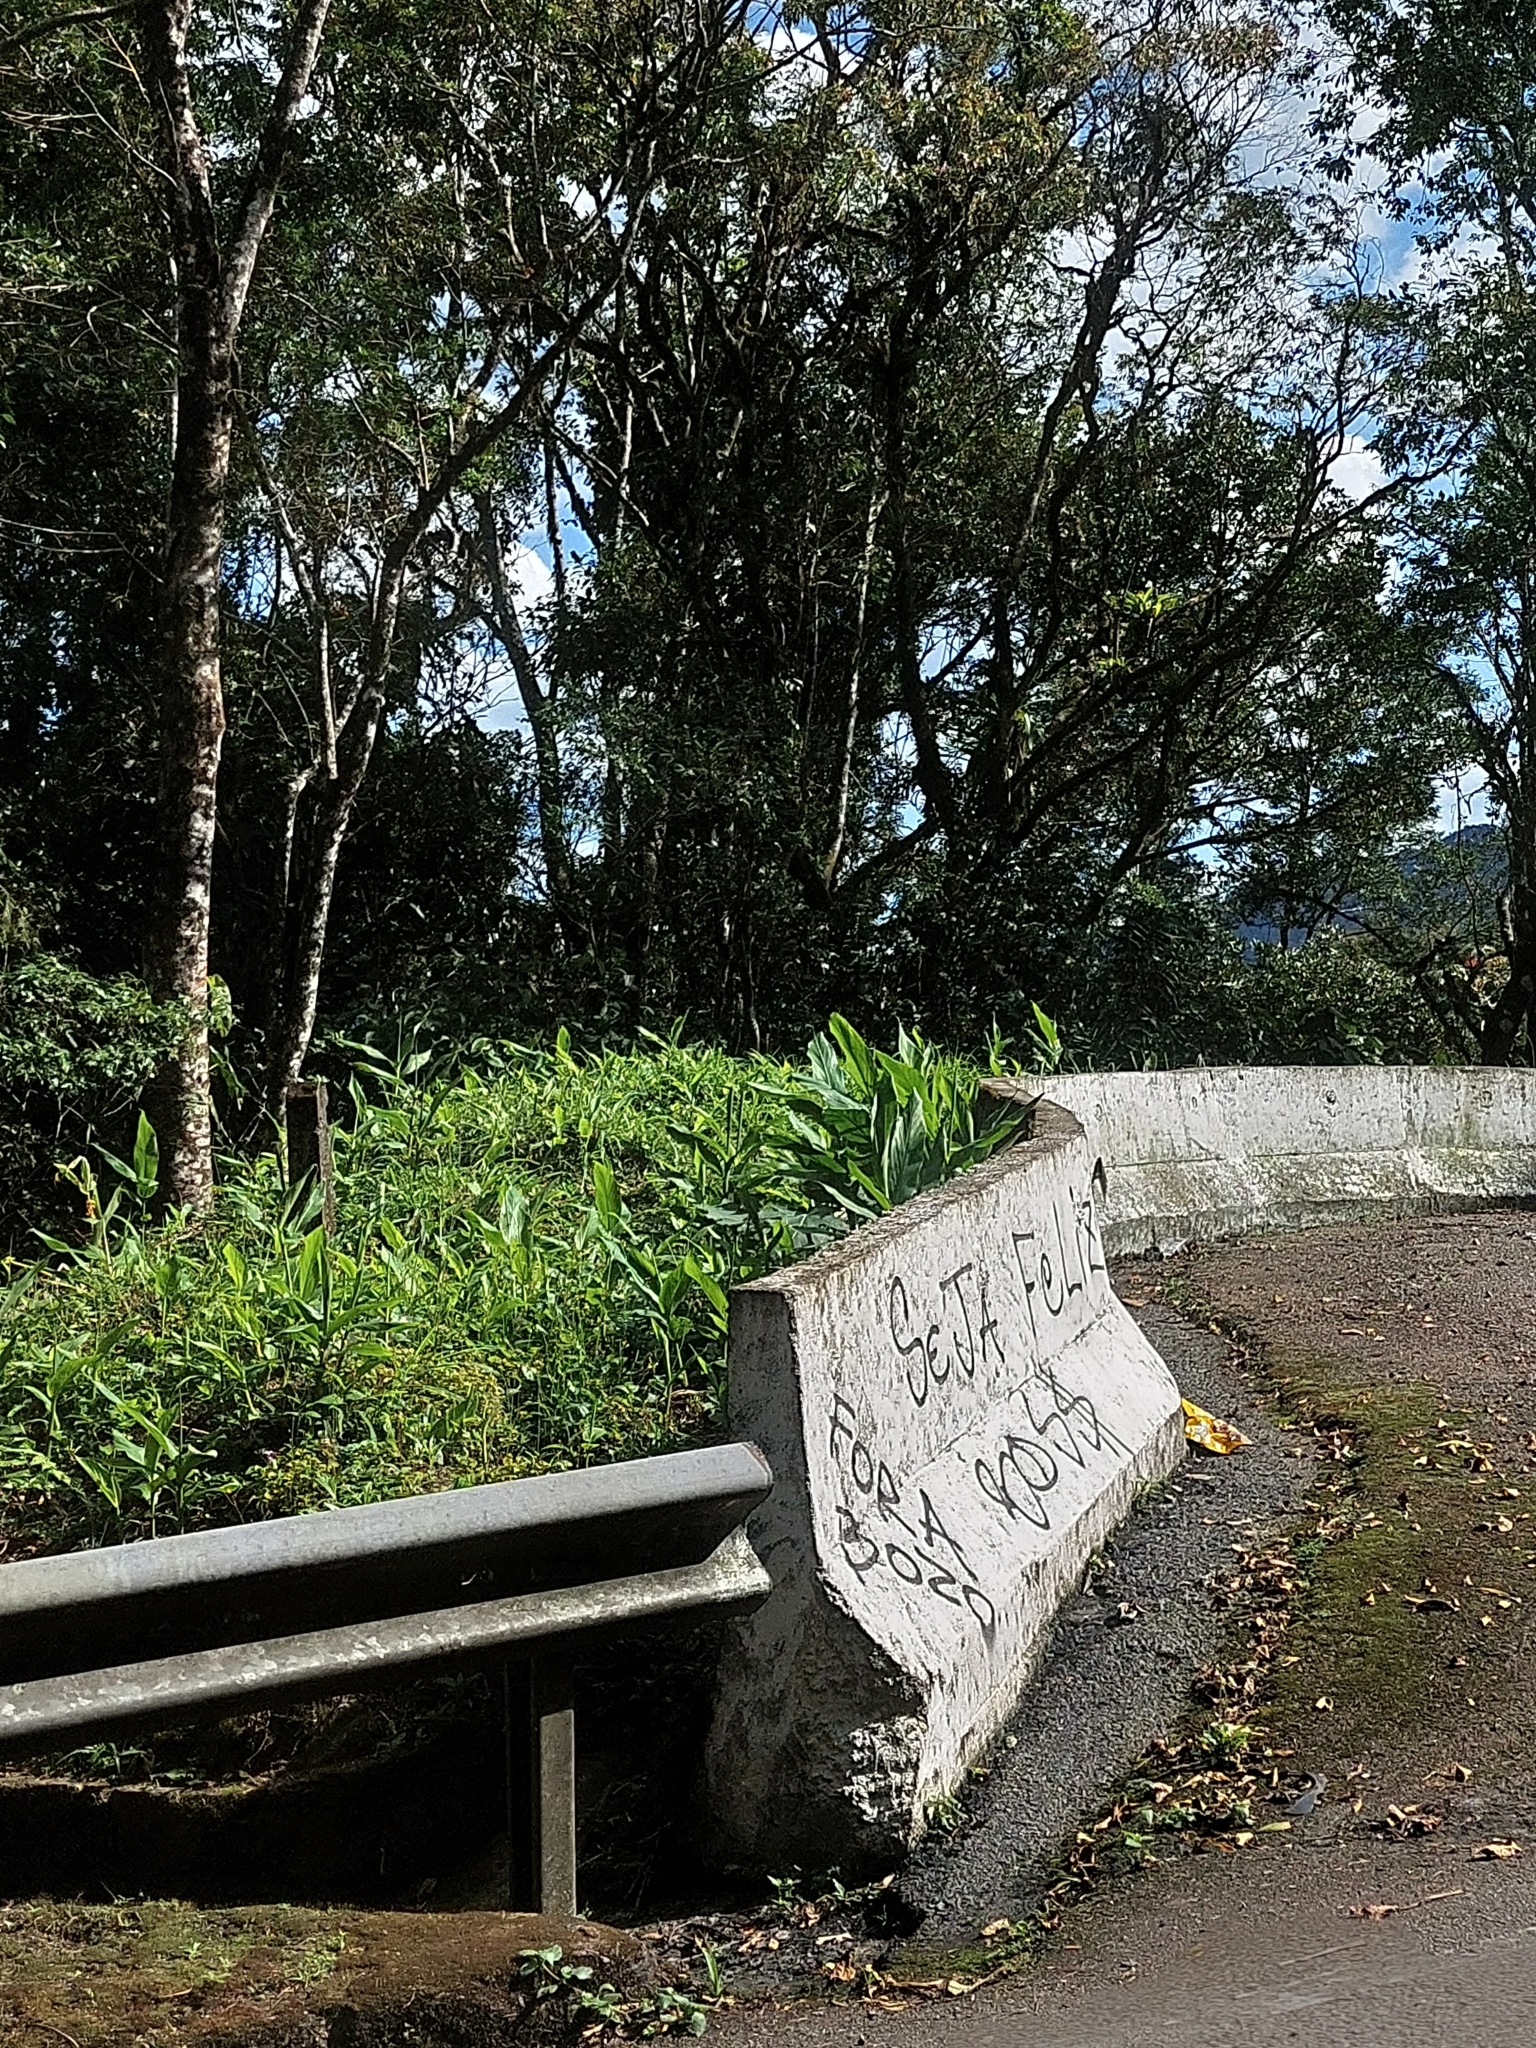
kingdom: Plantae
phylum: Tracheophyta
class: Liliopsida
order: Zingiberales
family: Zingiberaceae
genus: Hedychium
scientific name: Hedychium coronarium
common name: White garland-lily
